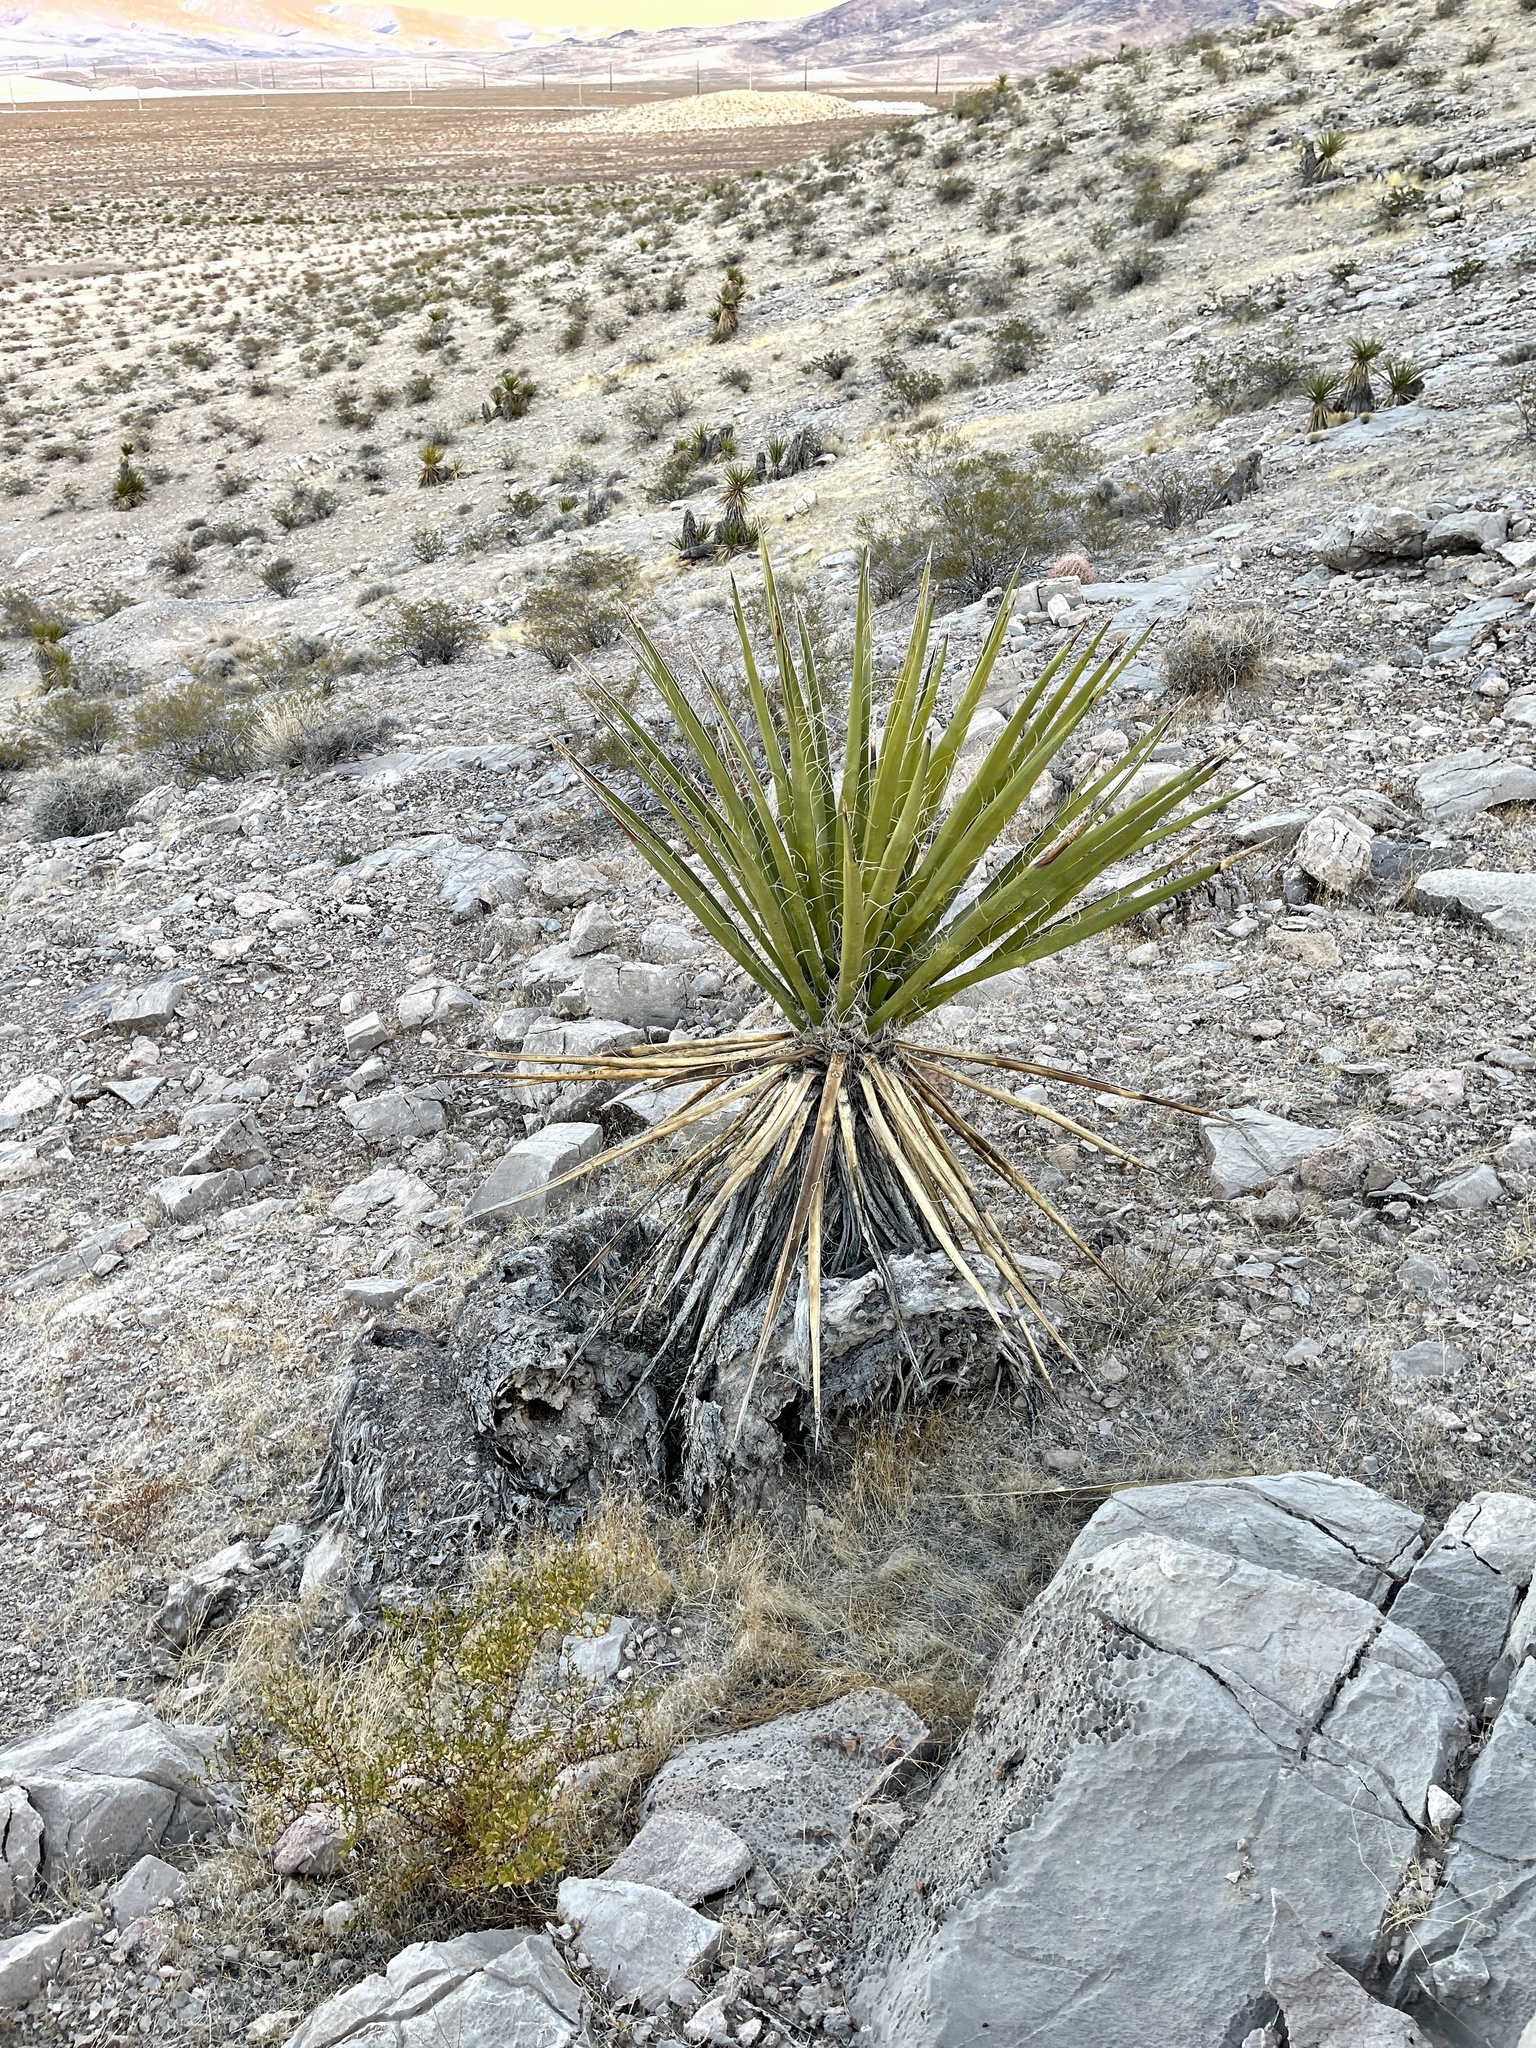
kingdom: Plantae
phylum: Tracheophyta
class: Liliopsida
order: Asparagales
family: Asparagaceae
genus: Yucca
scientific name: Yucca schidigera
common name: Mojave yucca
